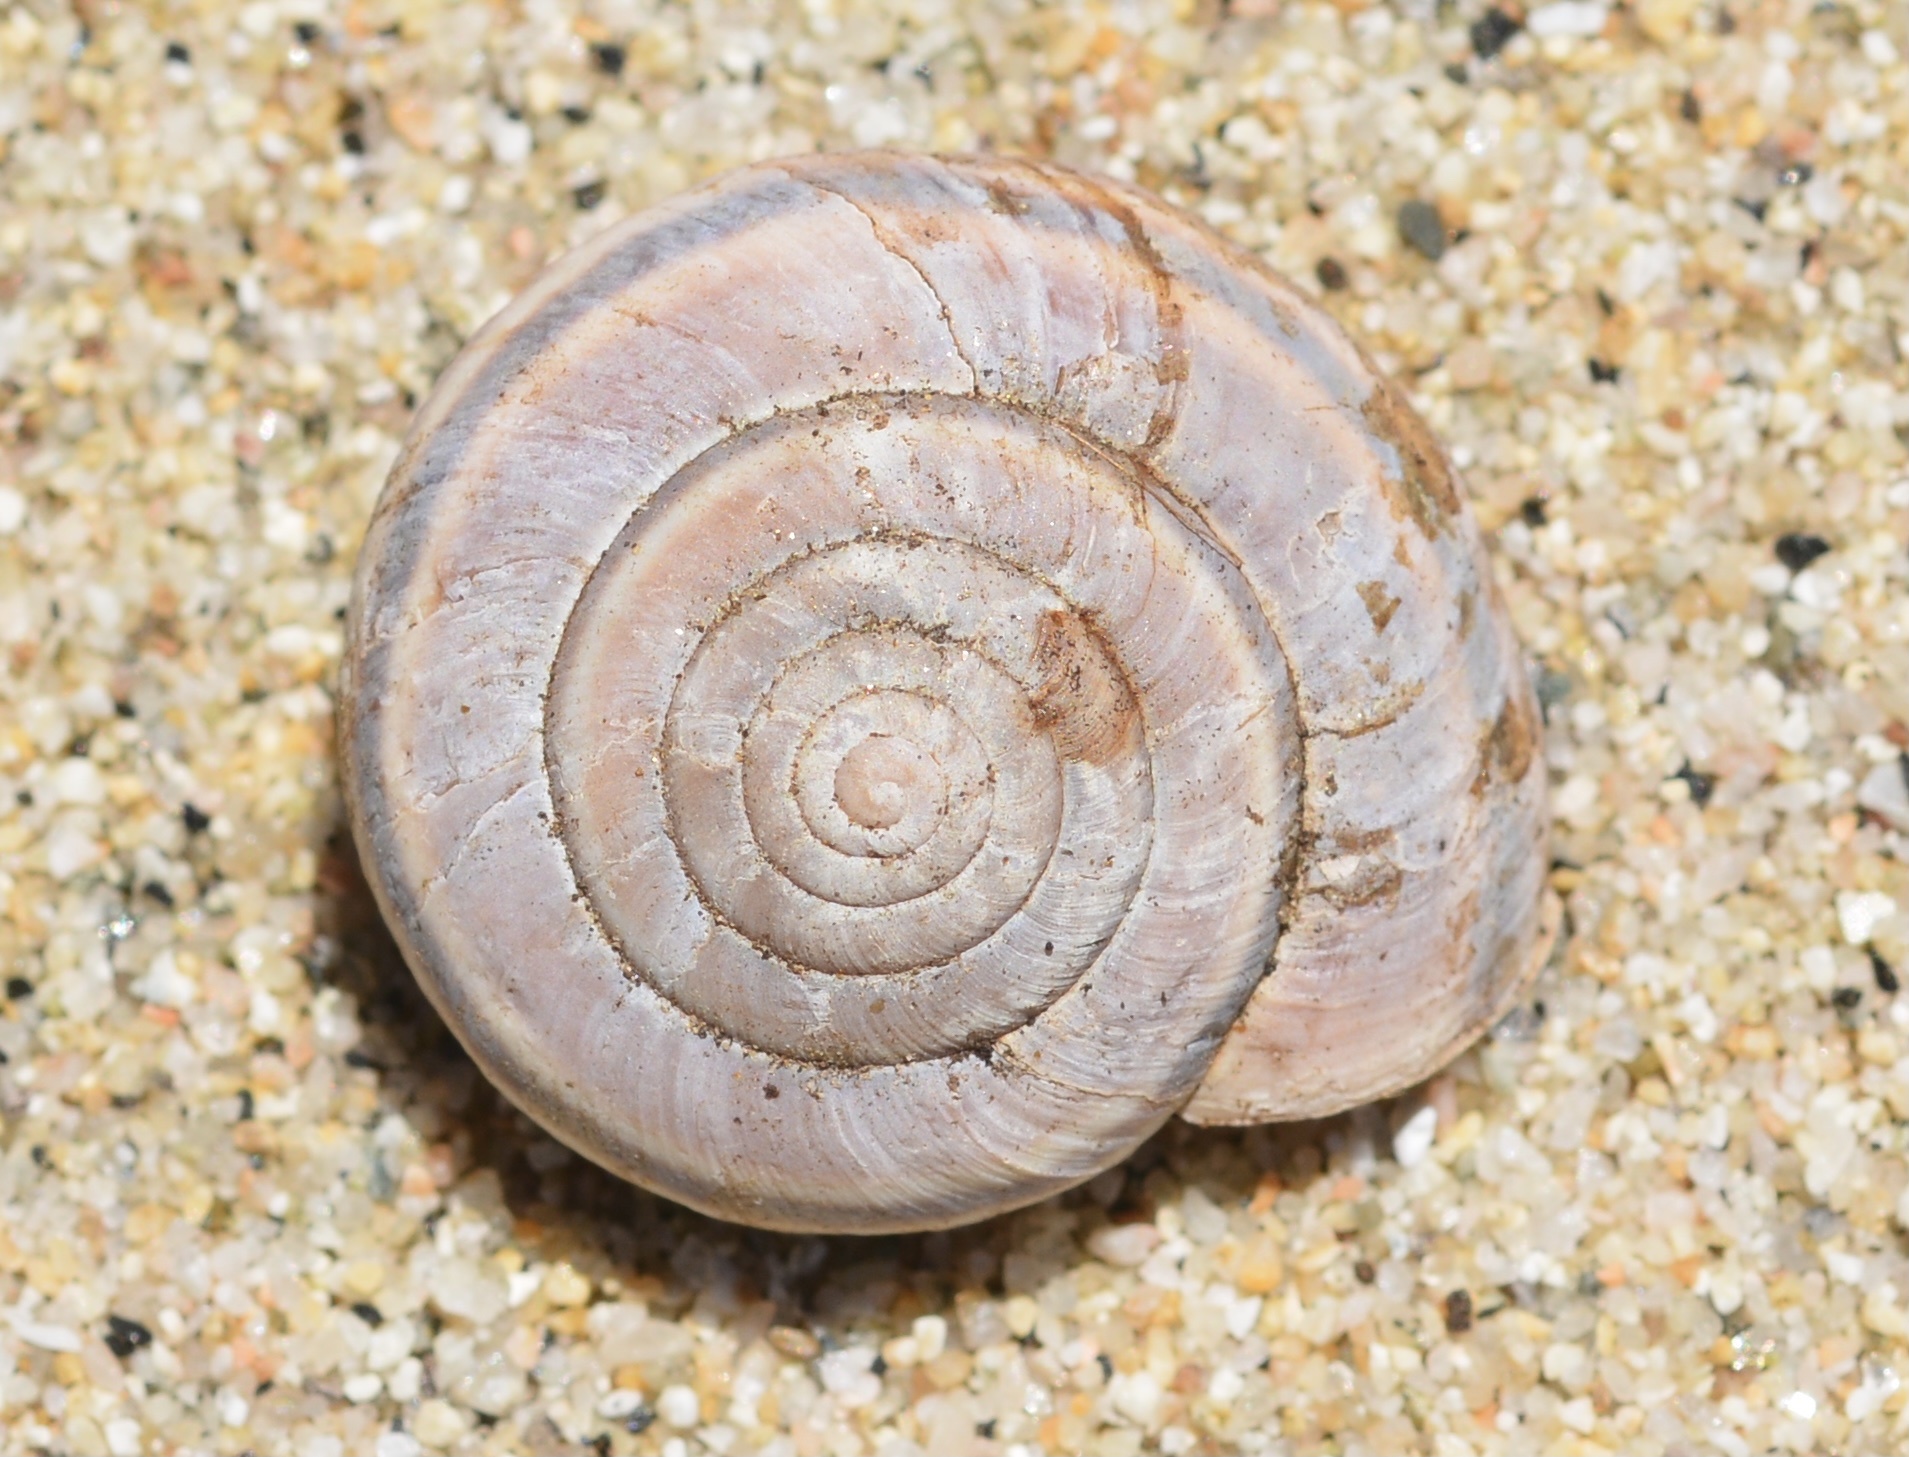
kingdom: Animalia
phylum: Mollusca
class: Gastropoda
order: Stylommatophora
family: Xanthonychidae
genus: Helminthoglypta
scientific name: Helminthoglypta dupetithouarsi
